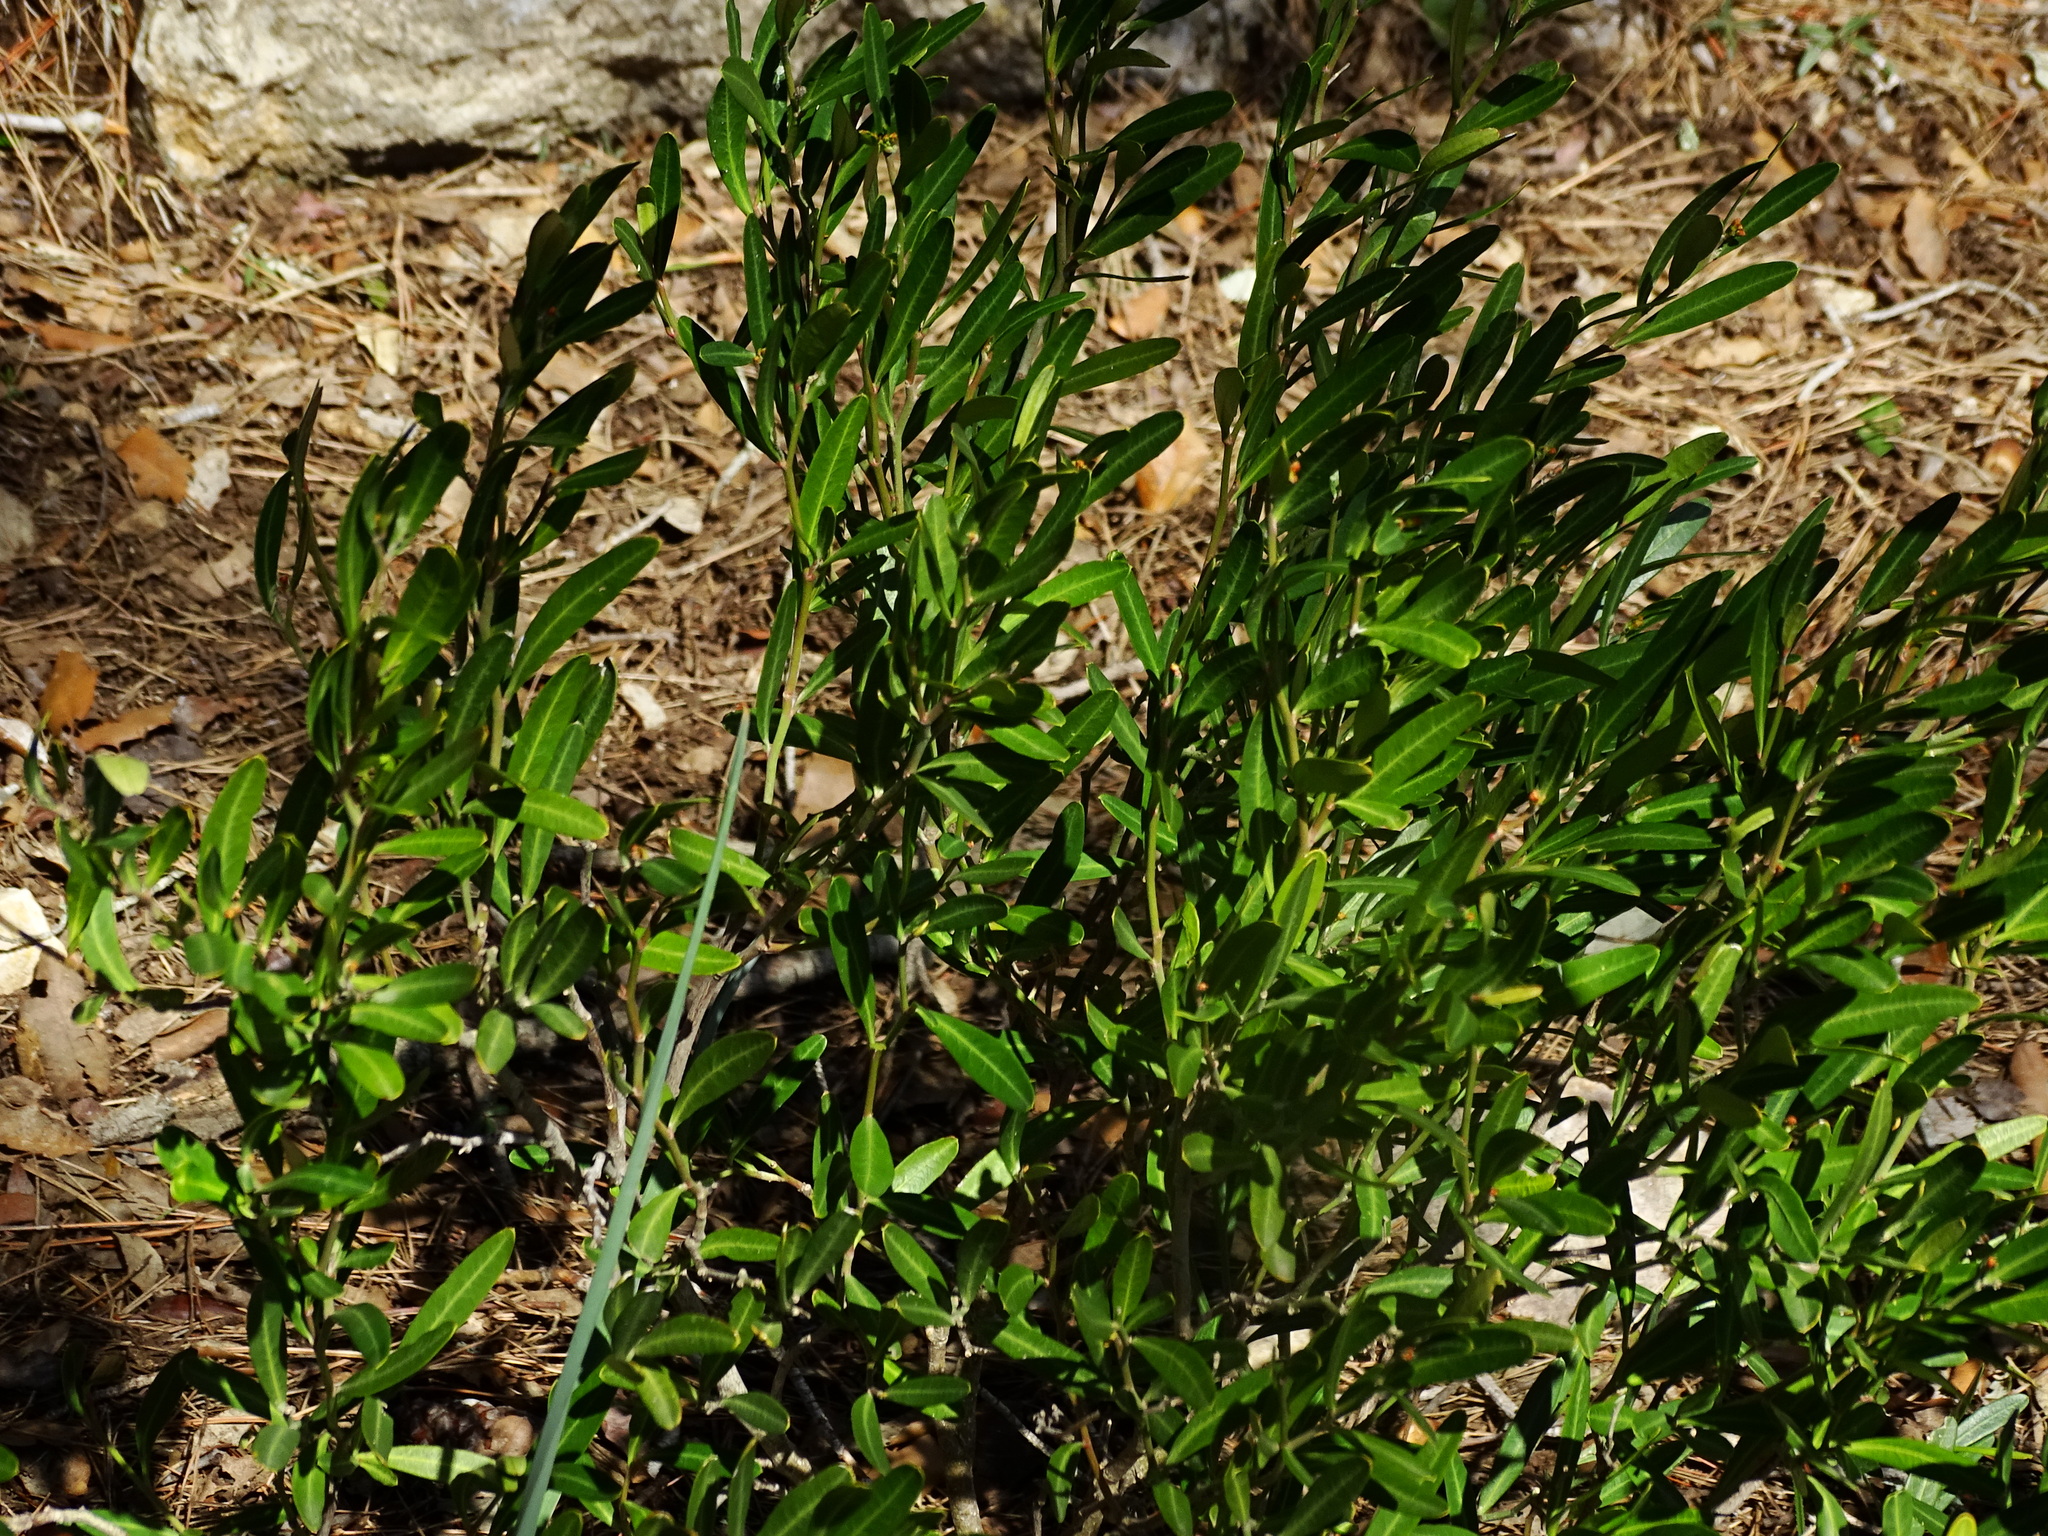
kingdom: Plantae
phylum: Tracheophyta
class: Magnoliopsida
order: Sapindales
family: Rutaceae
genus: Cneorum
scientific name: Cneorum tricoccon
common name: Spurge olive
